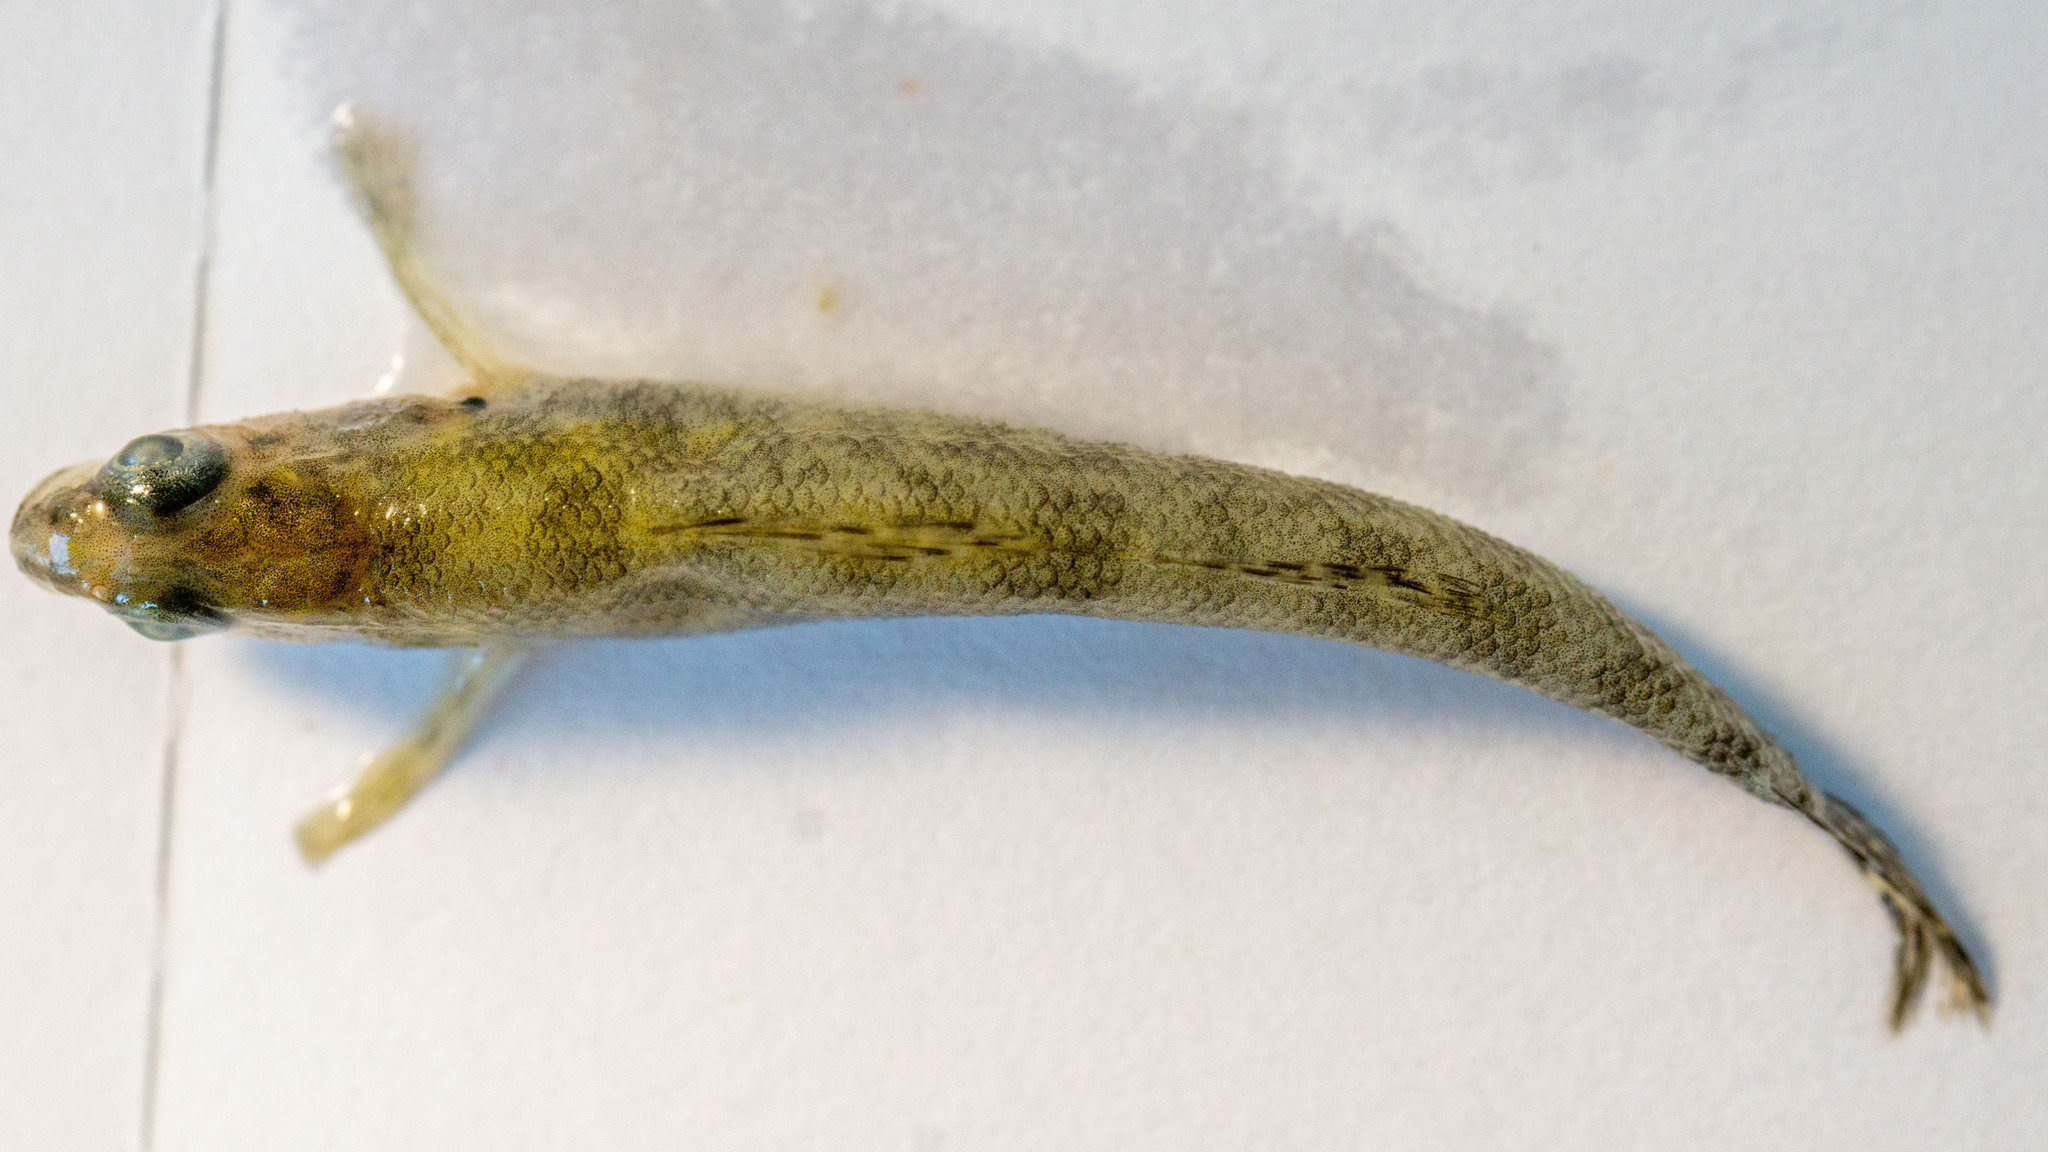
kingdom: Animalia
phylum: Chordata
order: Perciformes
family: Percidae
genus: Etheostoma
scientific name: Etheostoma exile
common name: Iowa darter
